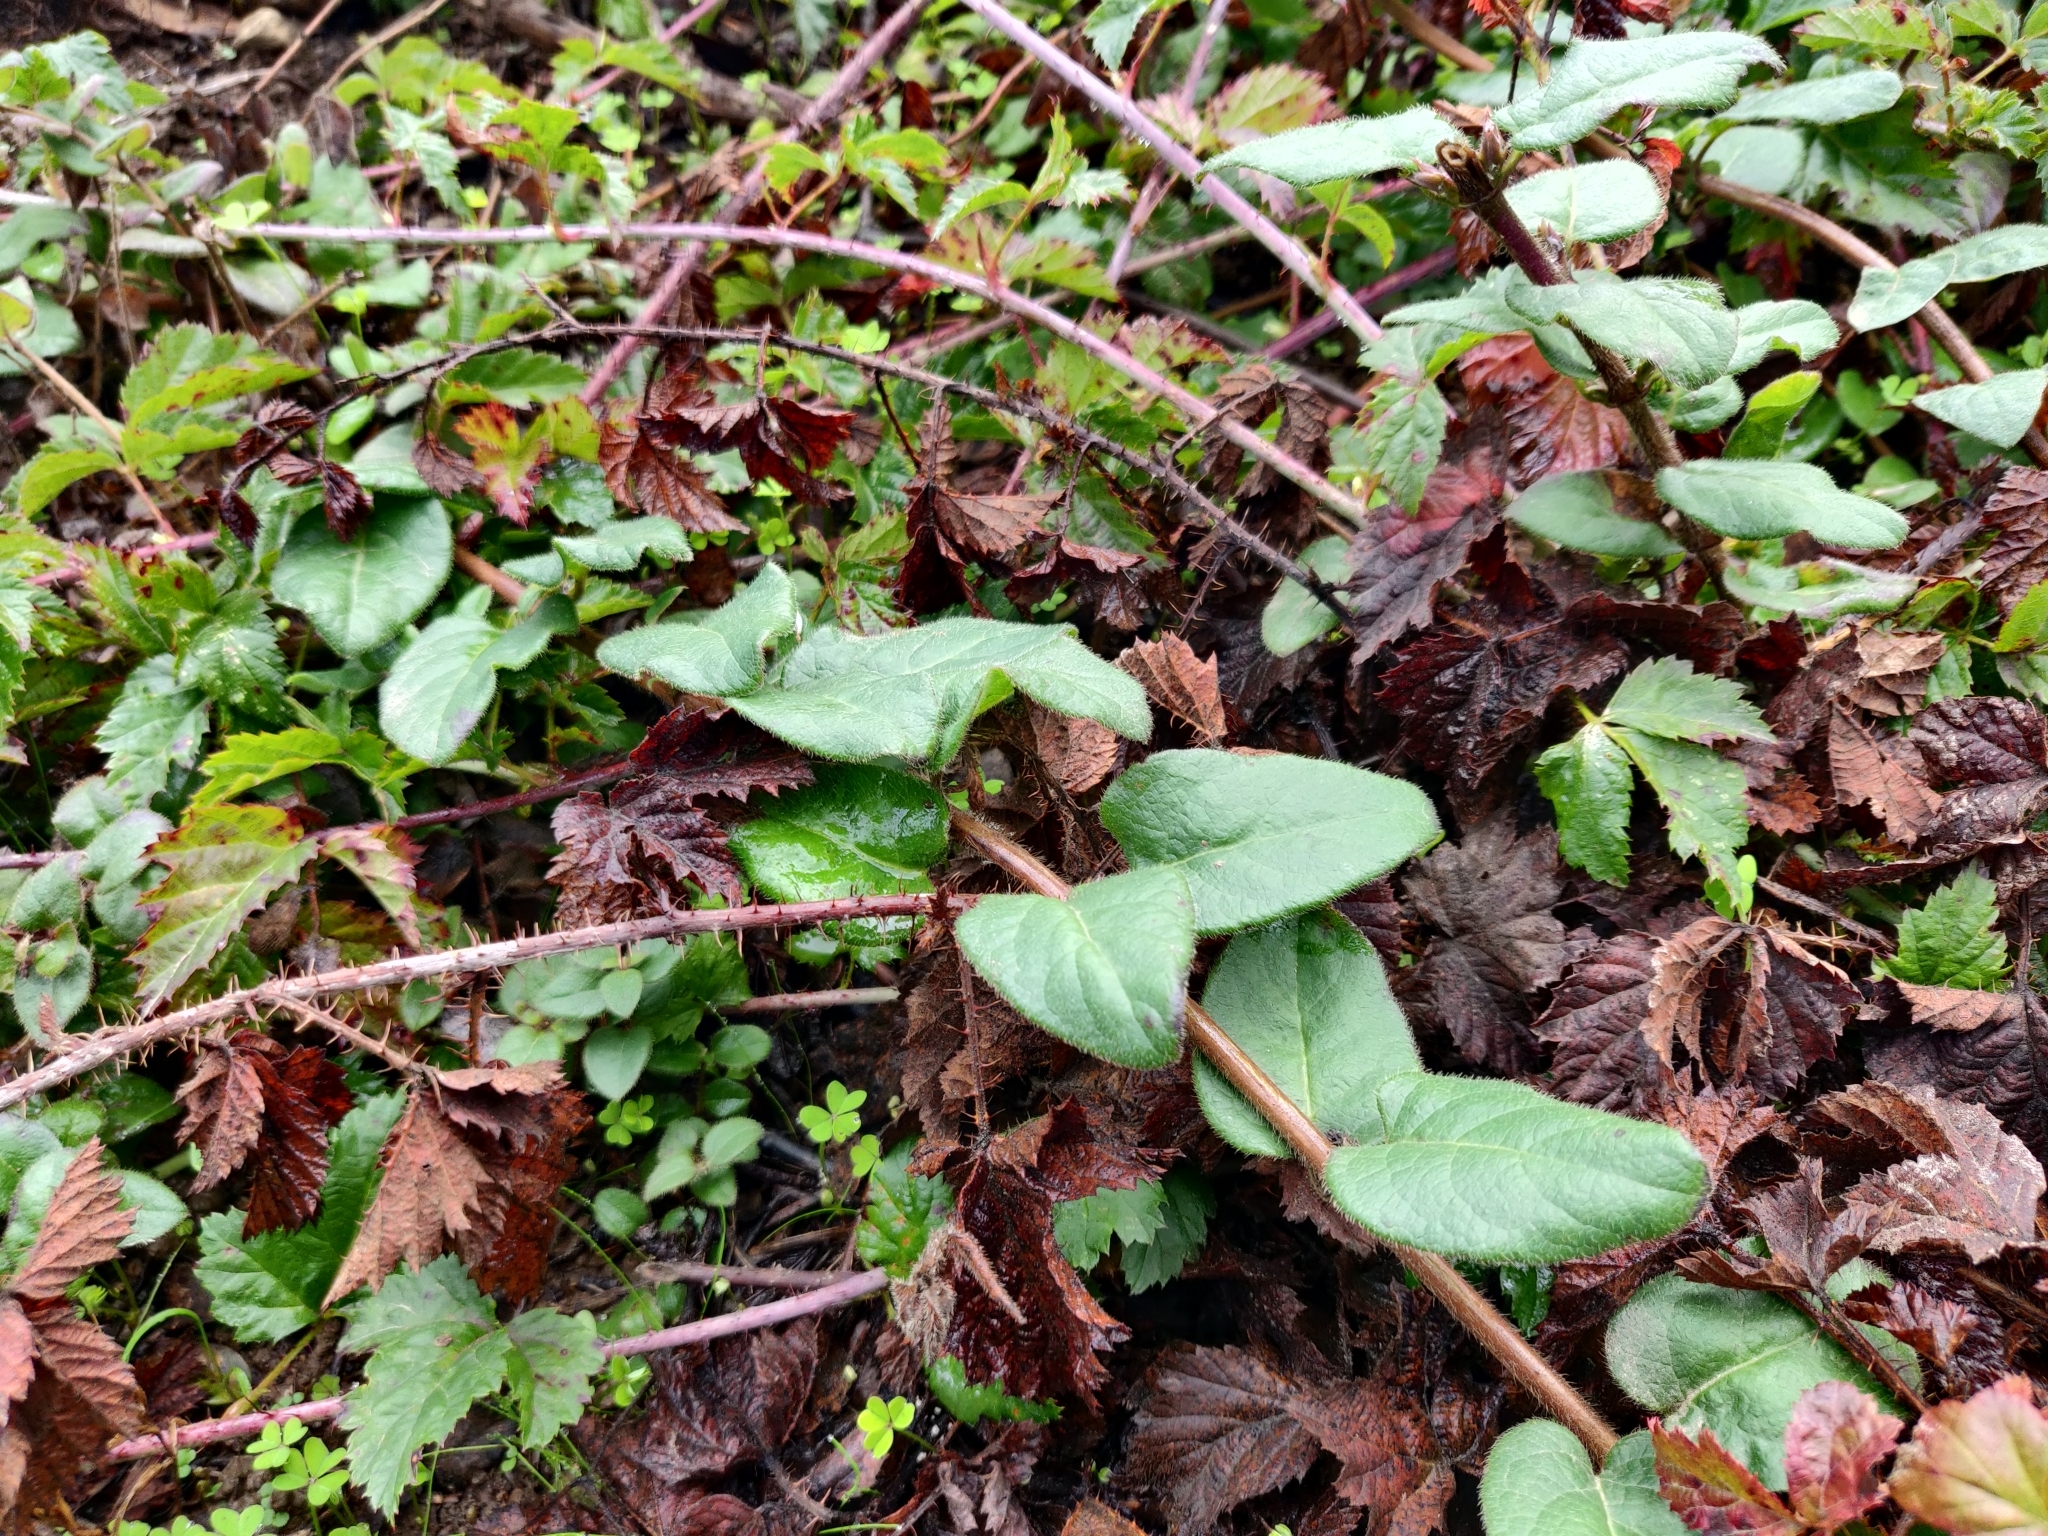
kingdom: Plantae
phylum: Tracheophyta
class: Magnoliopsida
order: Dipsacales
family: Caprifoliaceae
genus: Lonicera
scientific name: Lonicera hispidula
